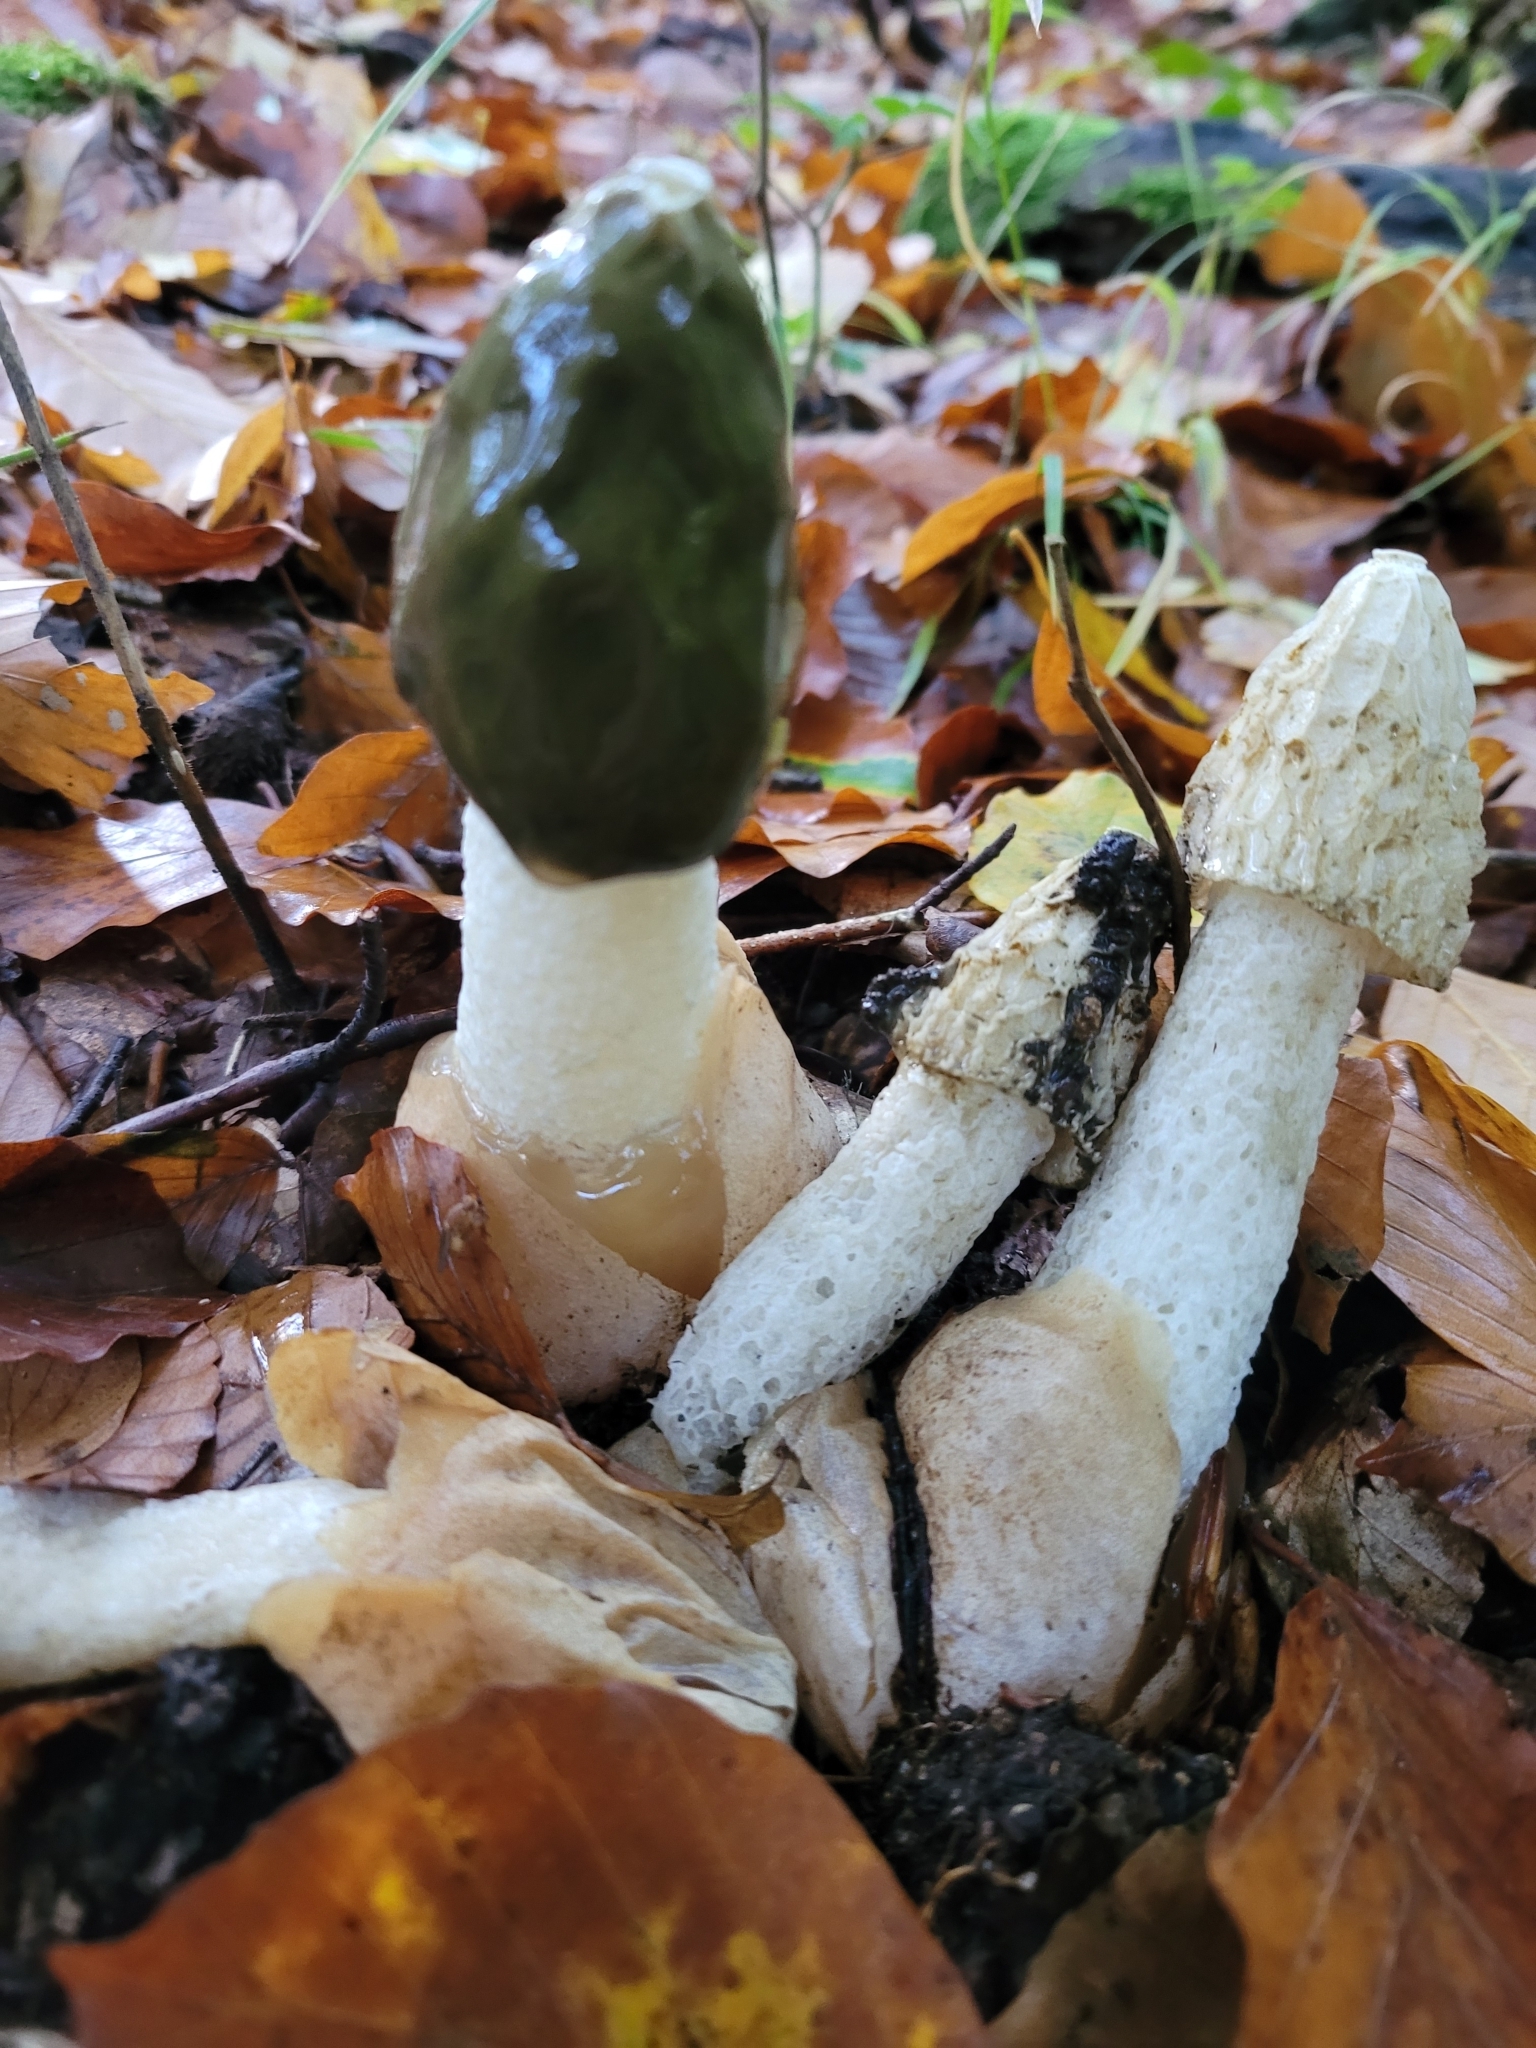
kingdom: Fungi
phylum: Basidiomycota
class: Agaricomycetes
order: Phallales
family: Phallaceae
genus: Phallus
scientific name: Phallus impudicus
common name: Common stinkhorn
